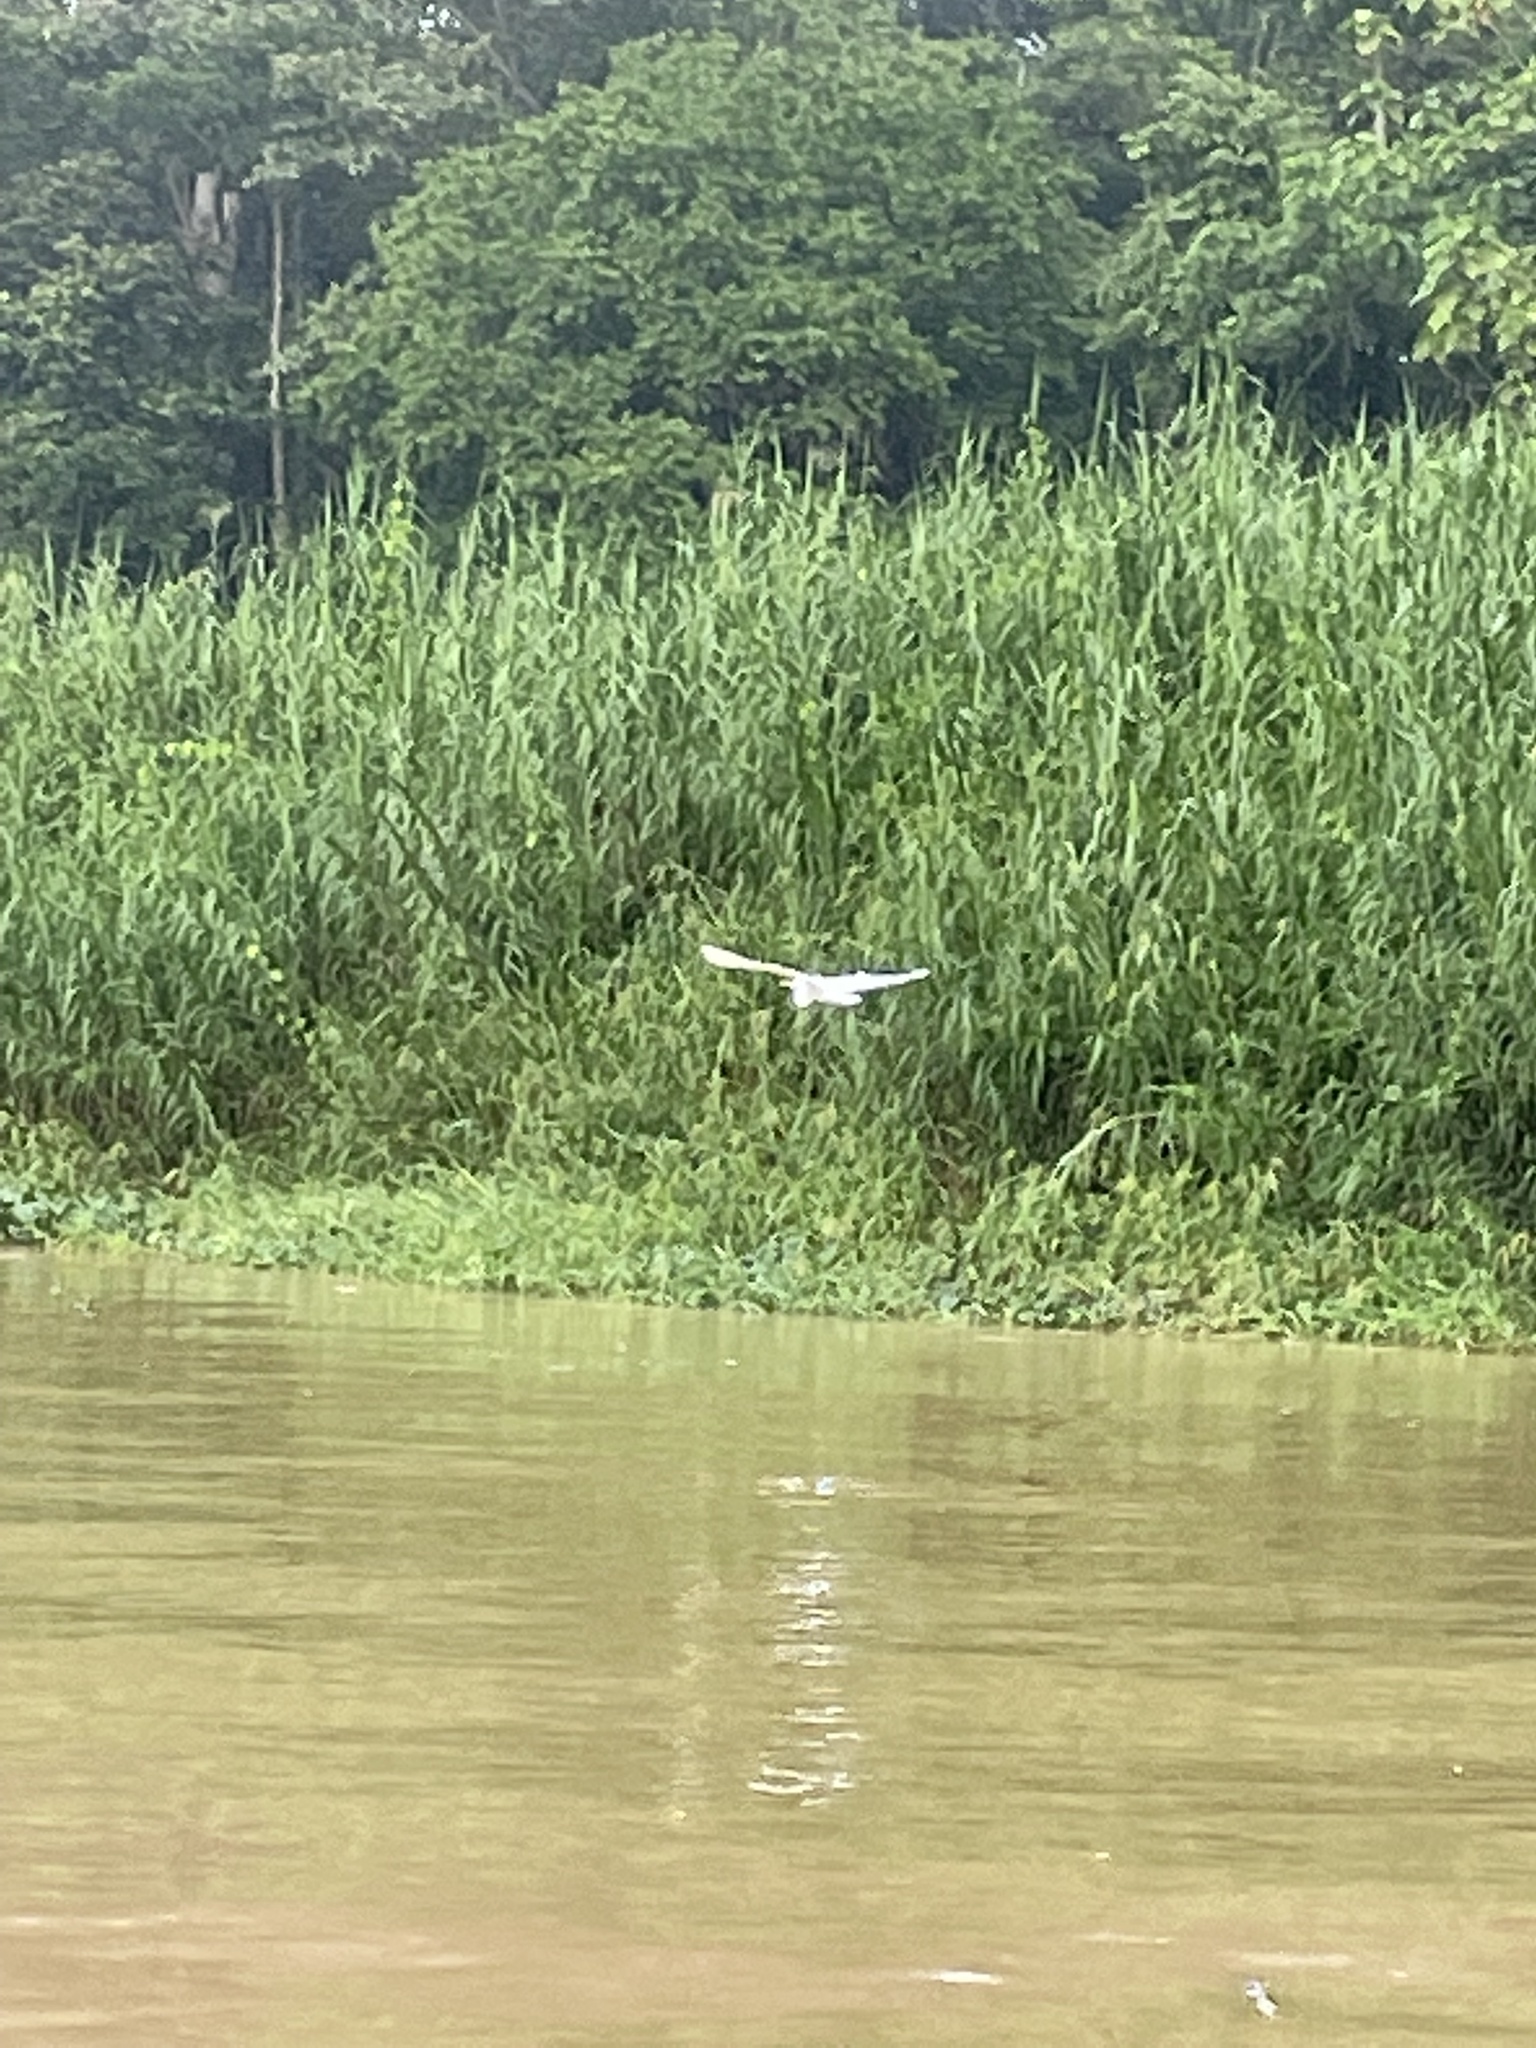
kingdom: Animalia
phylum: Chordata
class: Aves
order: Pelecaniformes
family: Ardeidae
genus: Ardea
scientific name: Ardea
